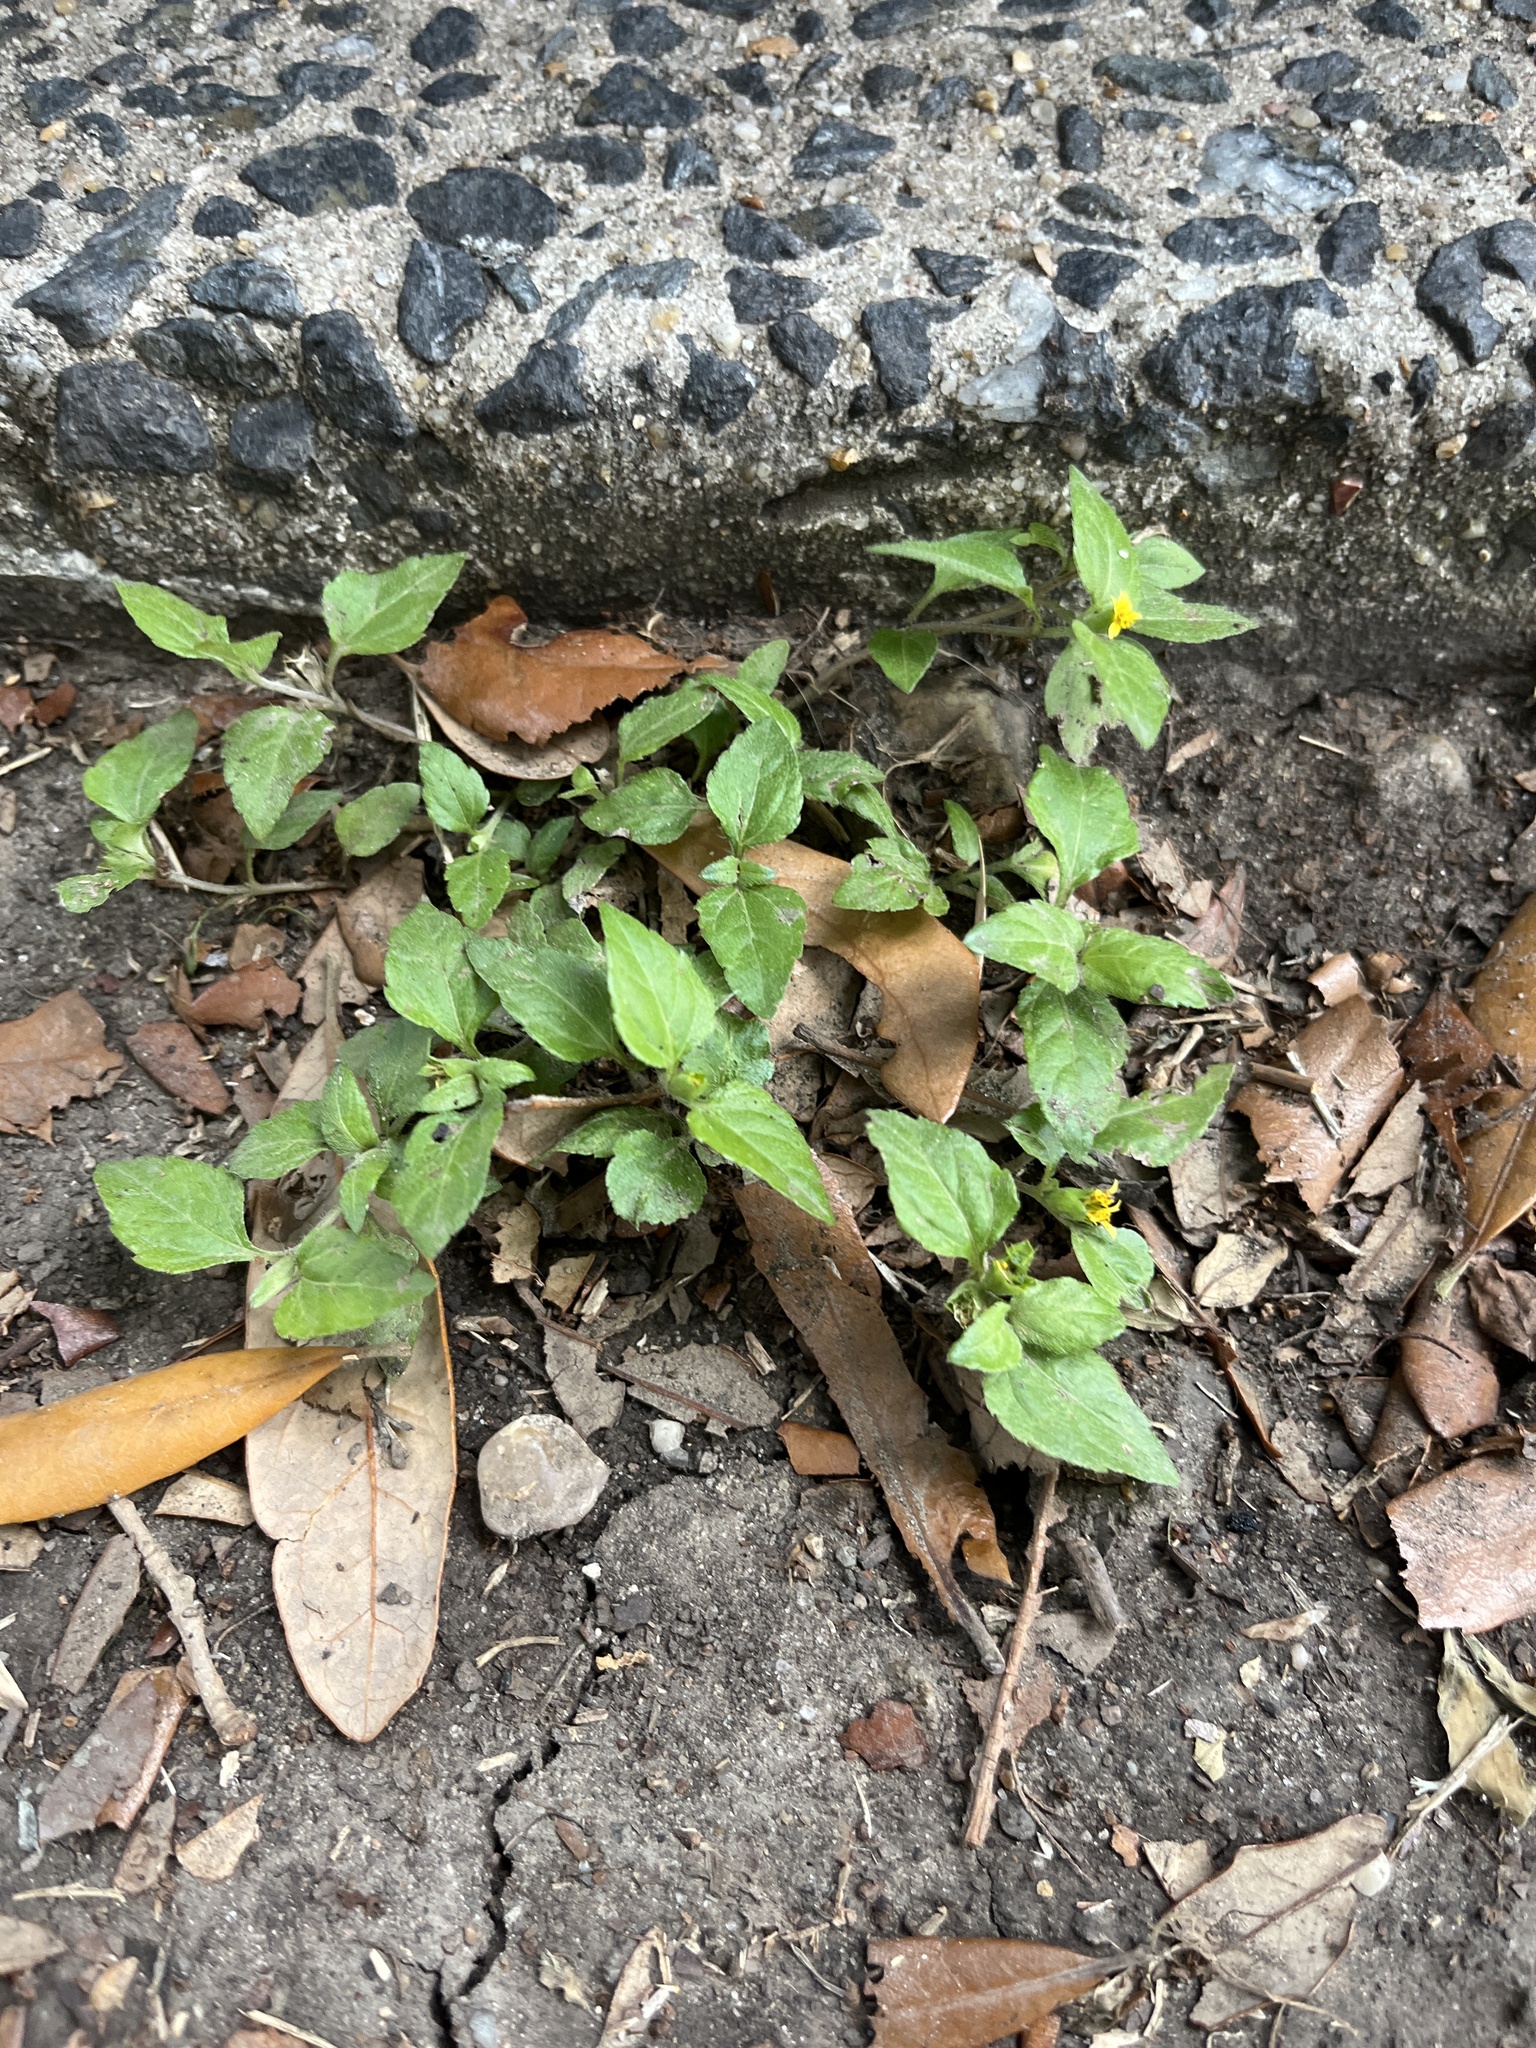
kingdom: Plantae
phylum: Tracheophyta
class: Magnoliopsida
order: Asterales
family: Asteraceae
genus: Calyptocarpus
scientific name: Calyptocarpus vialis
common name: Straggler daisy
